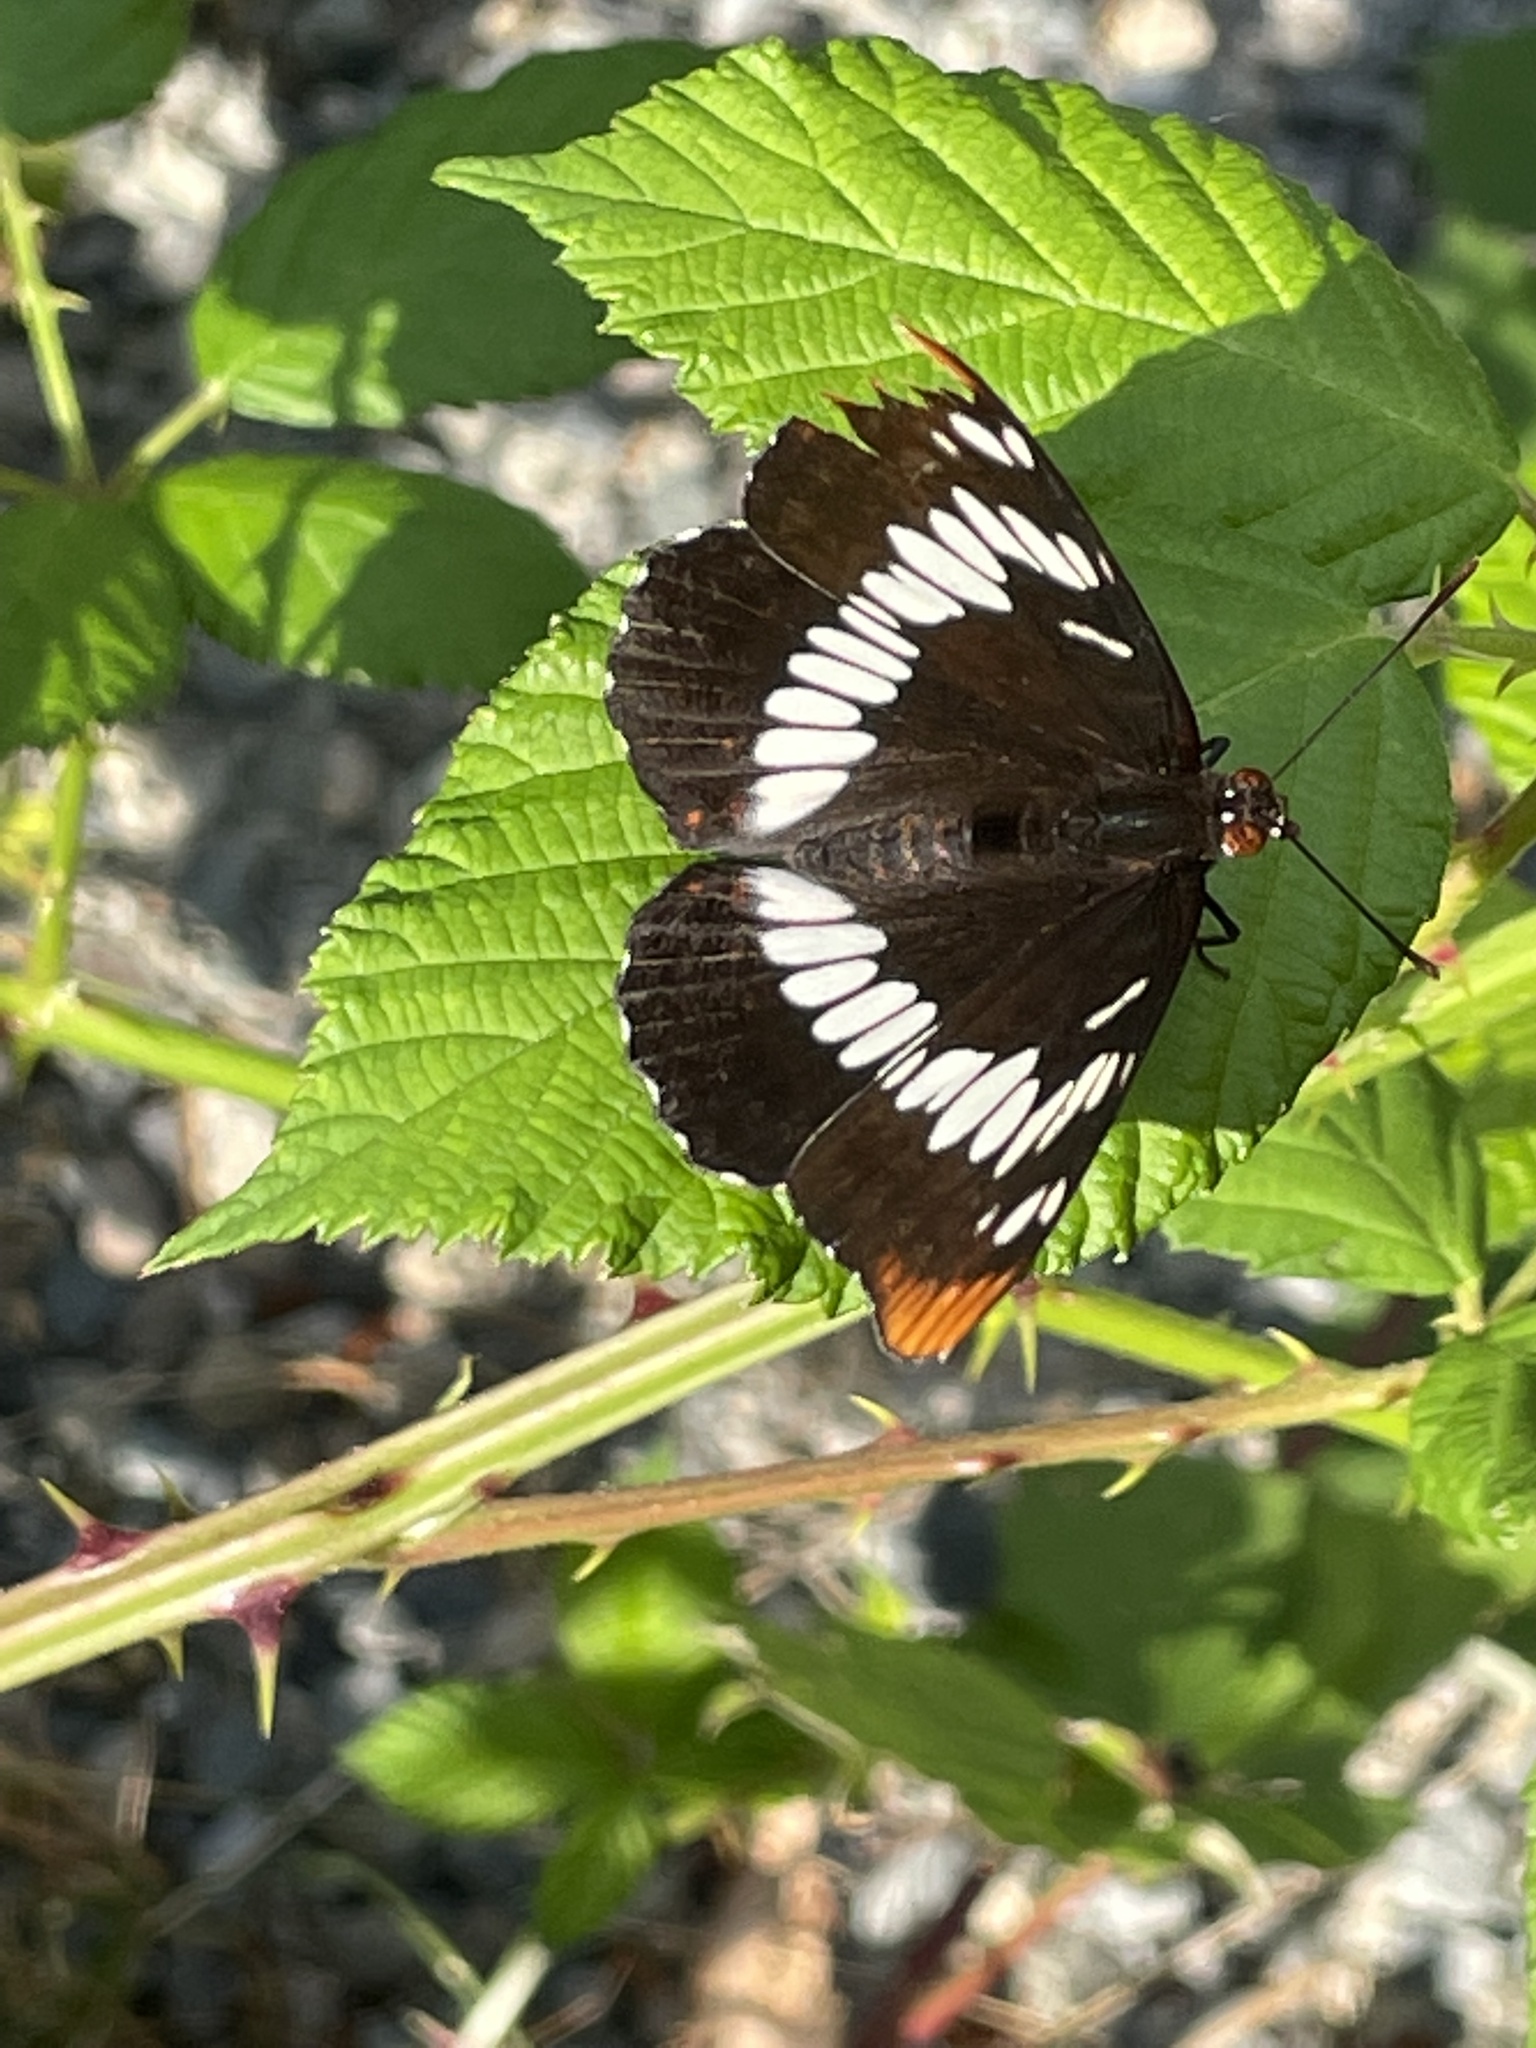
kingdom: Animalia
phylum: Arthropoda
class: Insecta
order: Lepidoptera
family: Nymphalidae
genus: Limenitis
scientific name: Limenitis lorquini
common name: Lorquin's admiral
